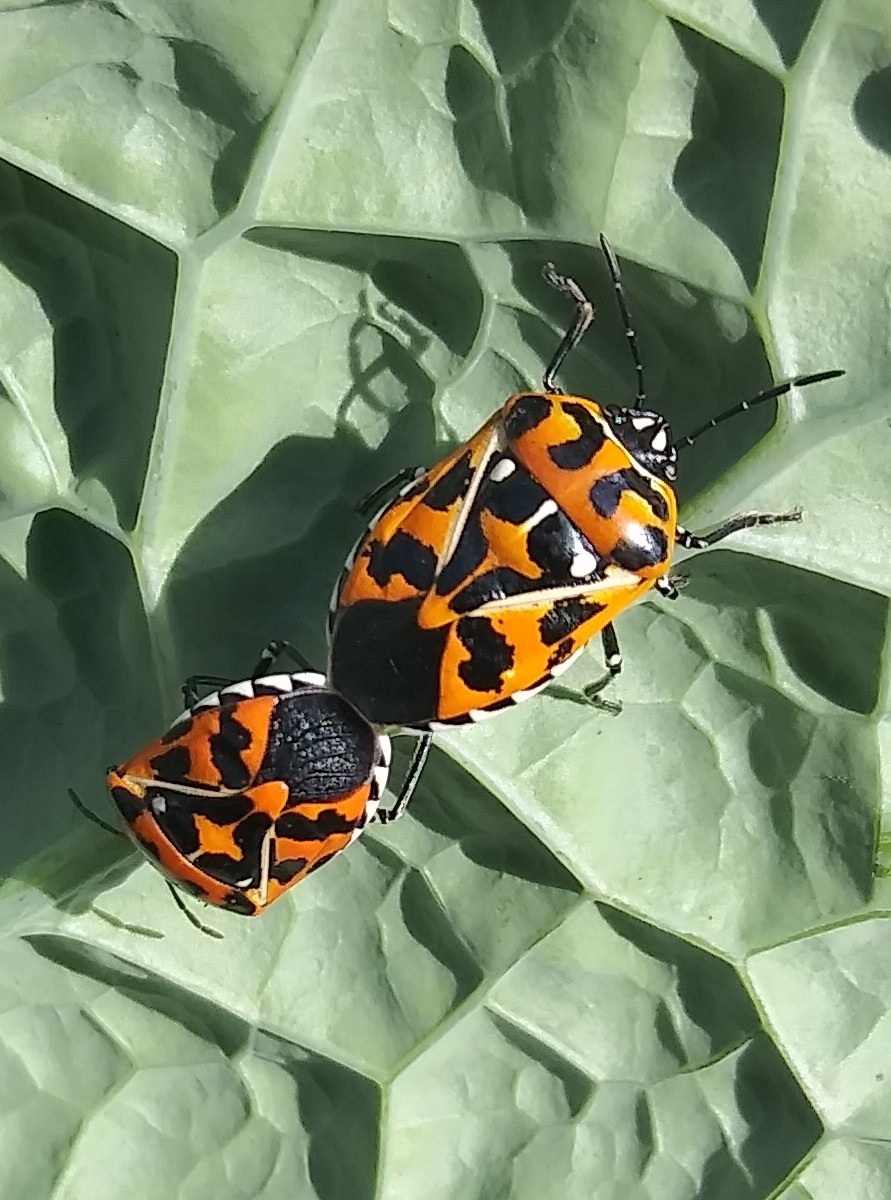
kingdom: Animalia
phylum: Arthropoda
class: Insecta
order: Hemiptera
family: Pentatomidae
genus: Murgantia
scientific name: Murgantia histrionica
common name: Harlequin bug
